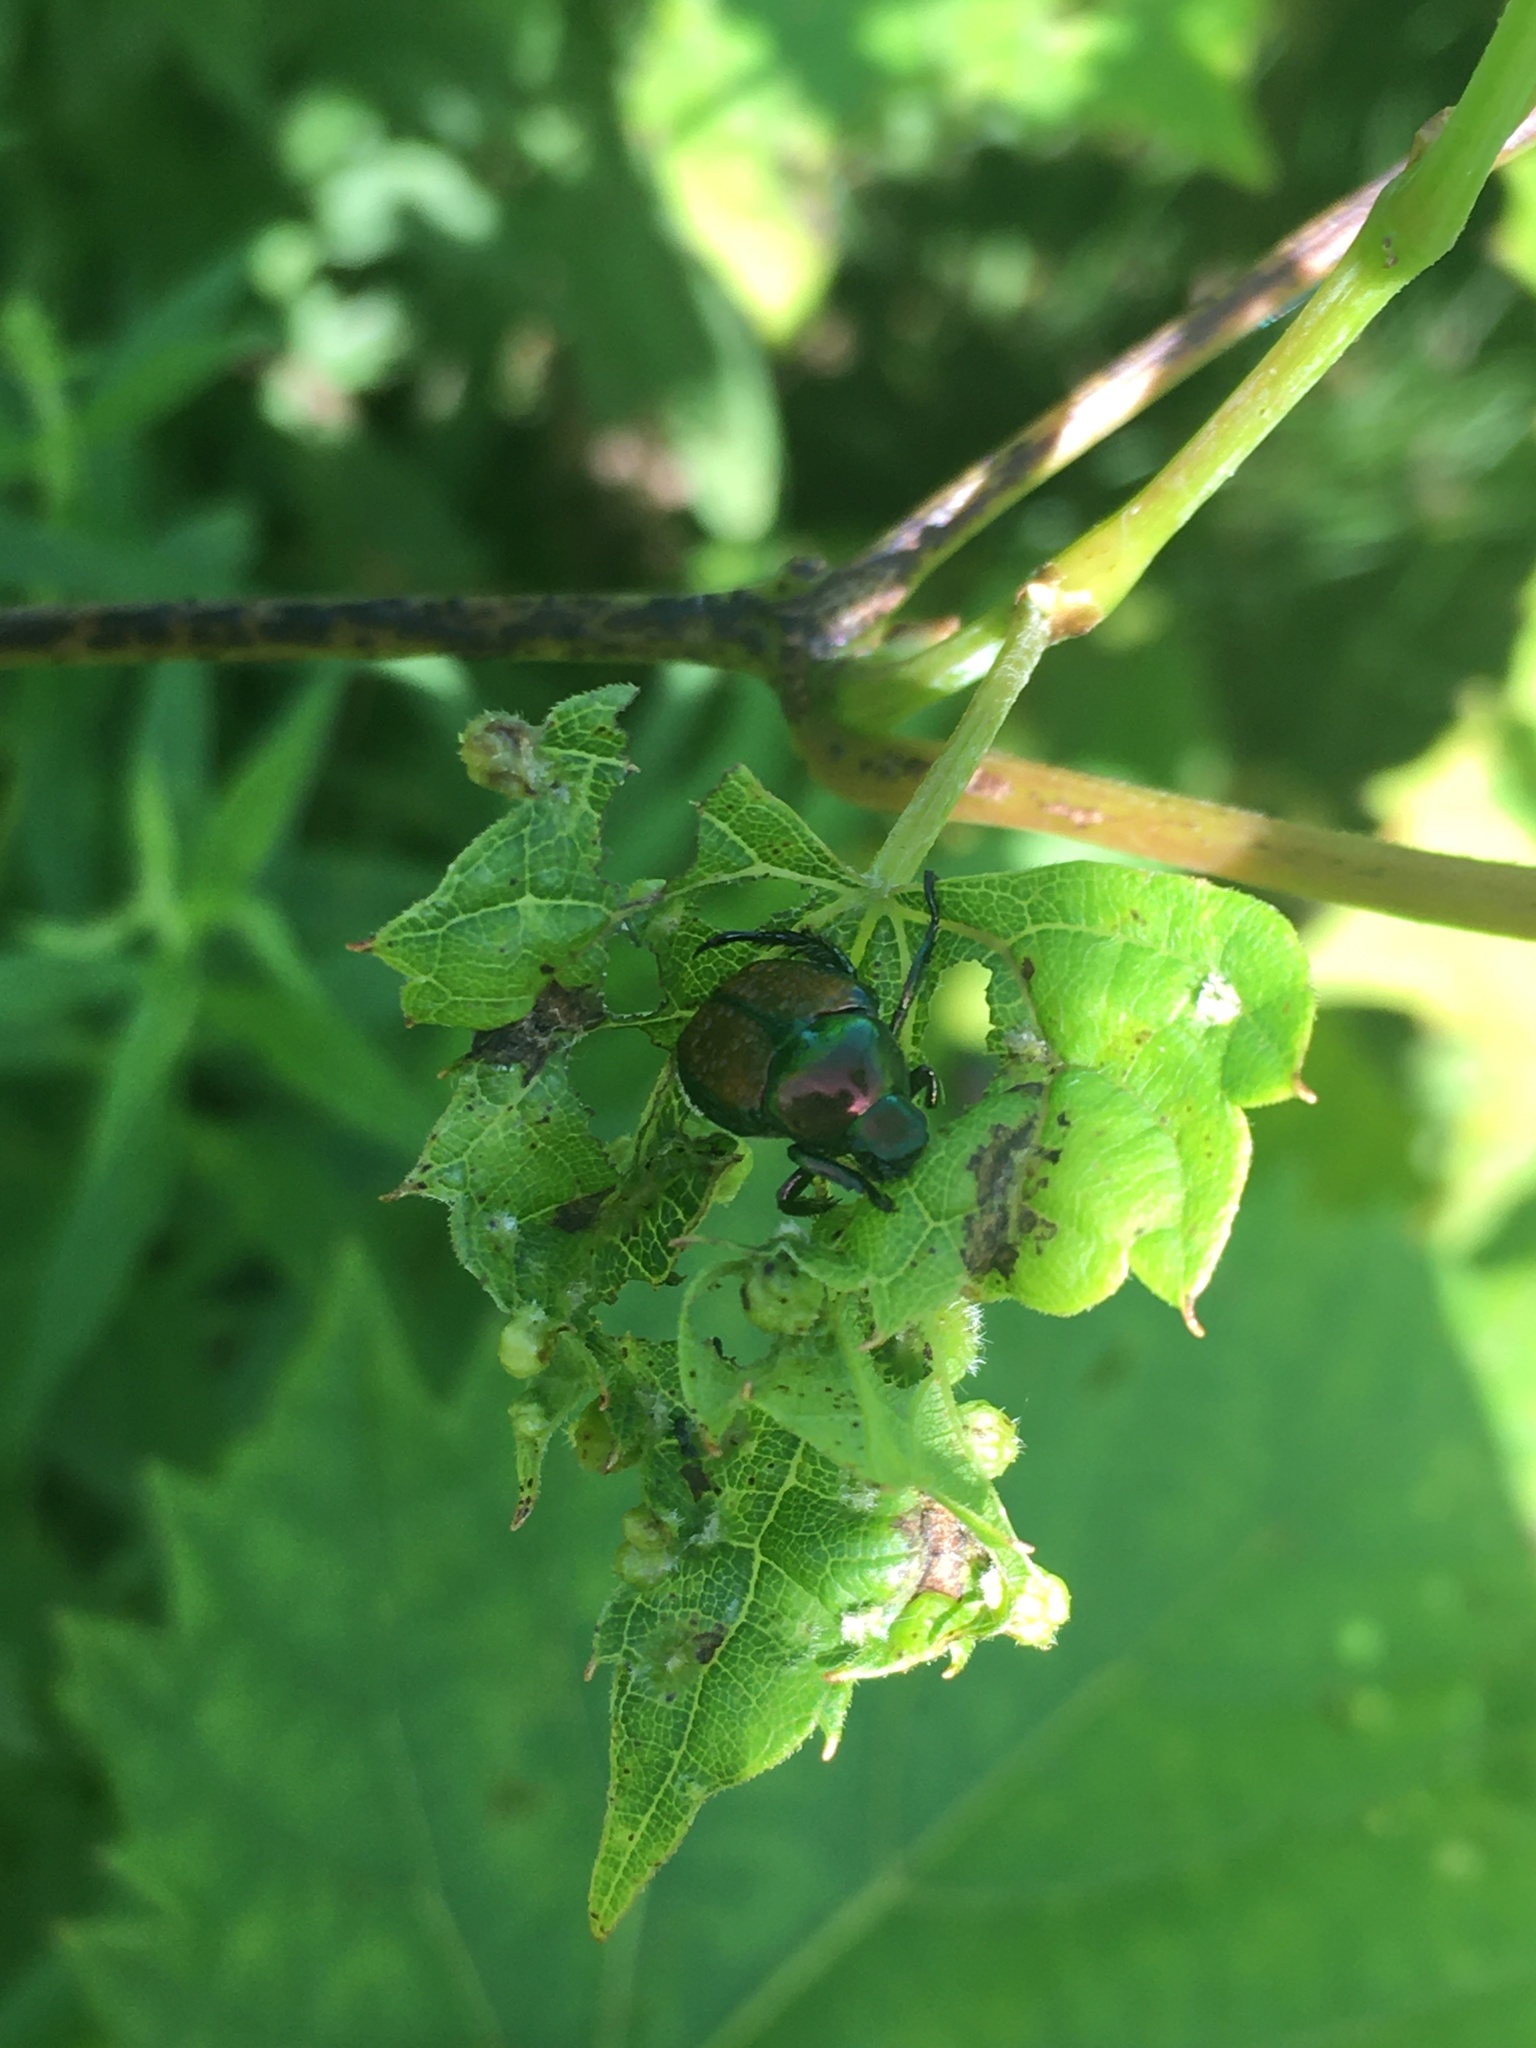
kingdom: Animalia
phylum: Arthropoda
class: Insecta
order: Coleoptera
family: Scarabaeidae
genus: Popillia
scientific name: Popillia japonica
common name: Japanese beetle
